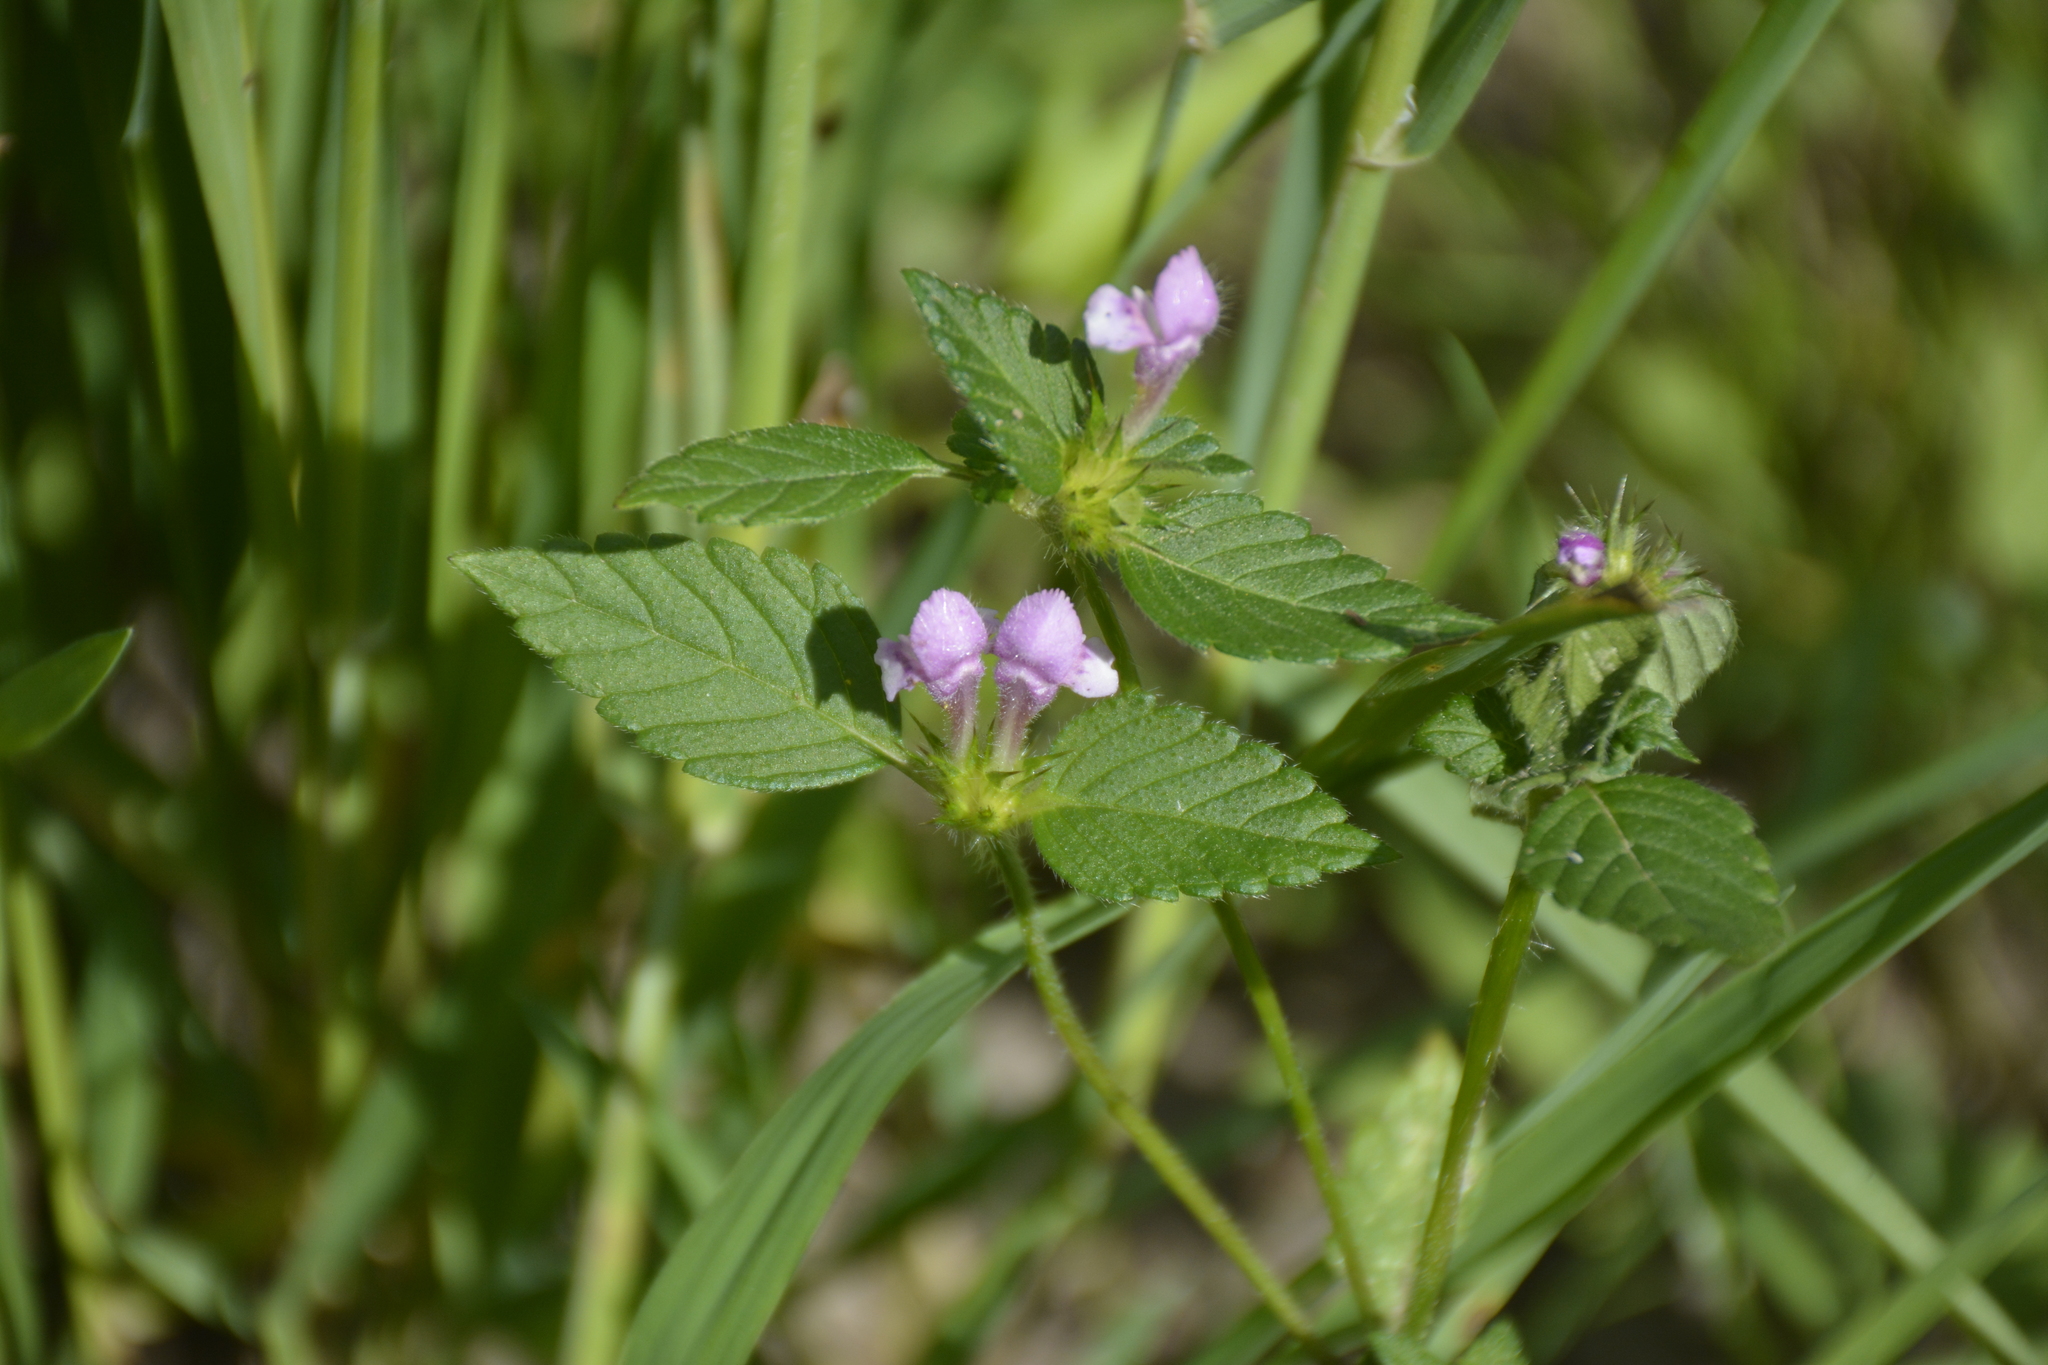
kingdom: Plantae
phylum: Tracheophyta
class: Magnoliopsida
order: Lamiales
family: Lamiaceae
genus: Galeopsis
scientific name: Galeopsis tetrahit
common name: Common hemp-nettle
